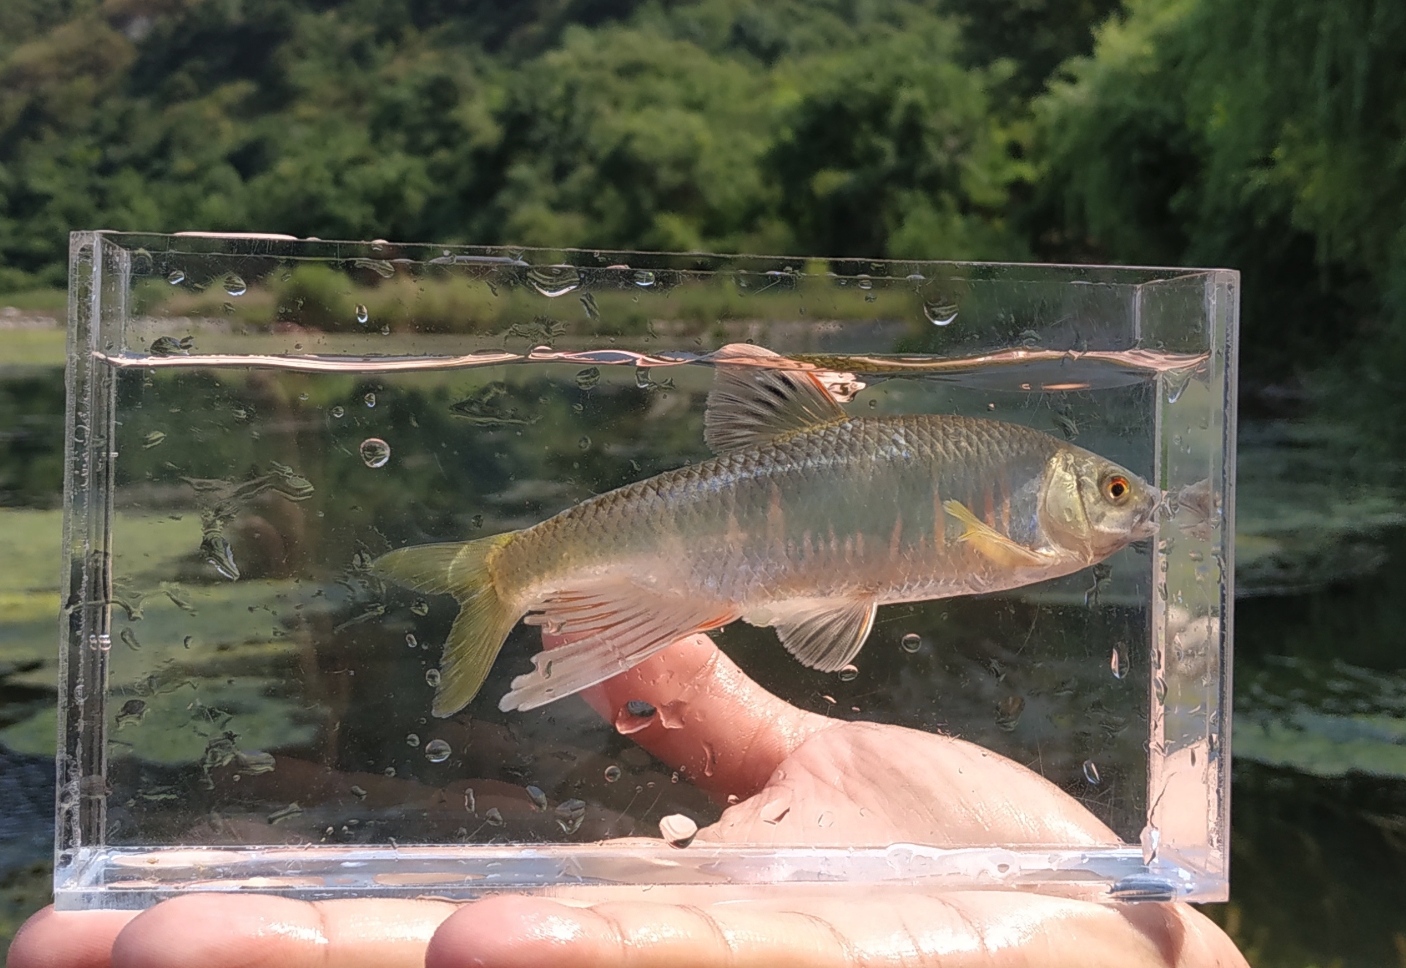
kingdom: Animalia
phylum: Chordata
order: Cypriniformes
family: Cyprinidae
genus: Zacco
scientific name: Zacco platypus
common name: Freshwater minnow
